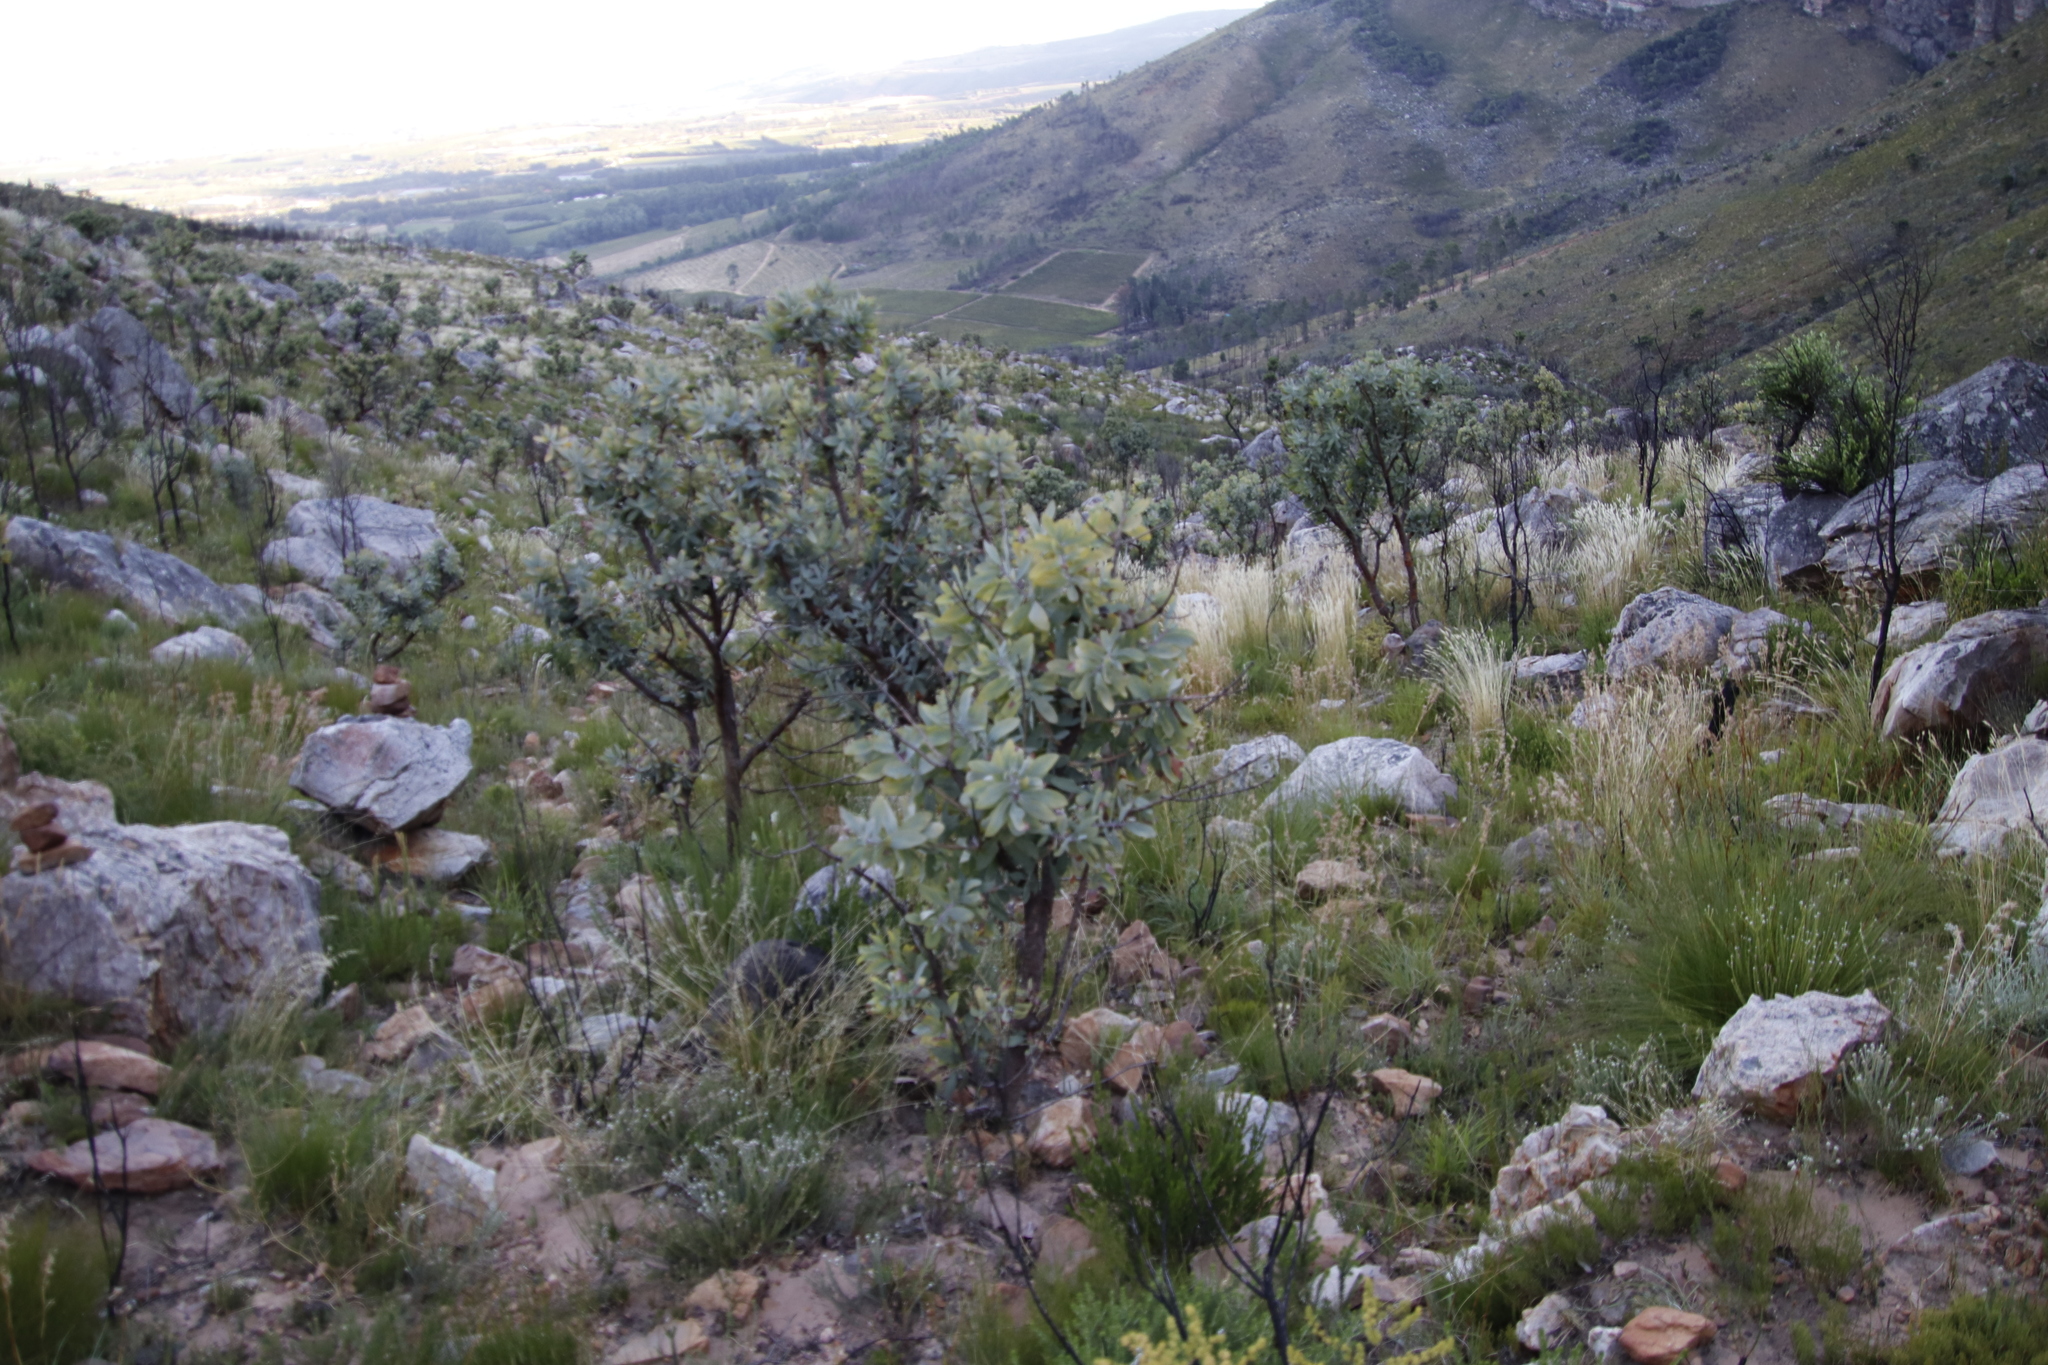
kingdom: Plantae
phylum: Tracheophyta
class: Magnoliopsida
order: Proteales
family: Proteaceae
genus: Protea
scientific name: Protea nitida
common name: Tree protea
